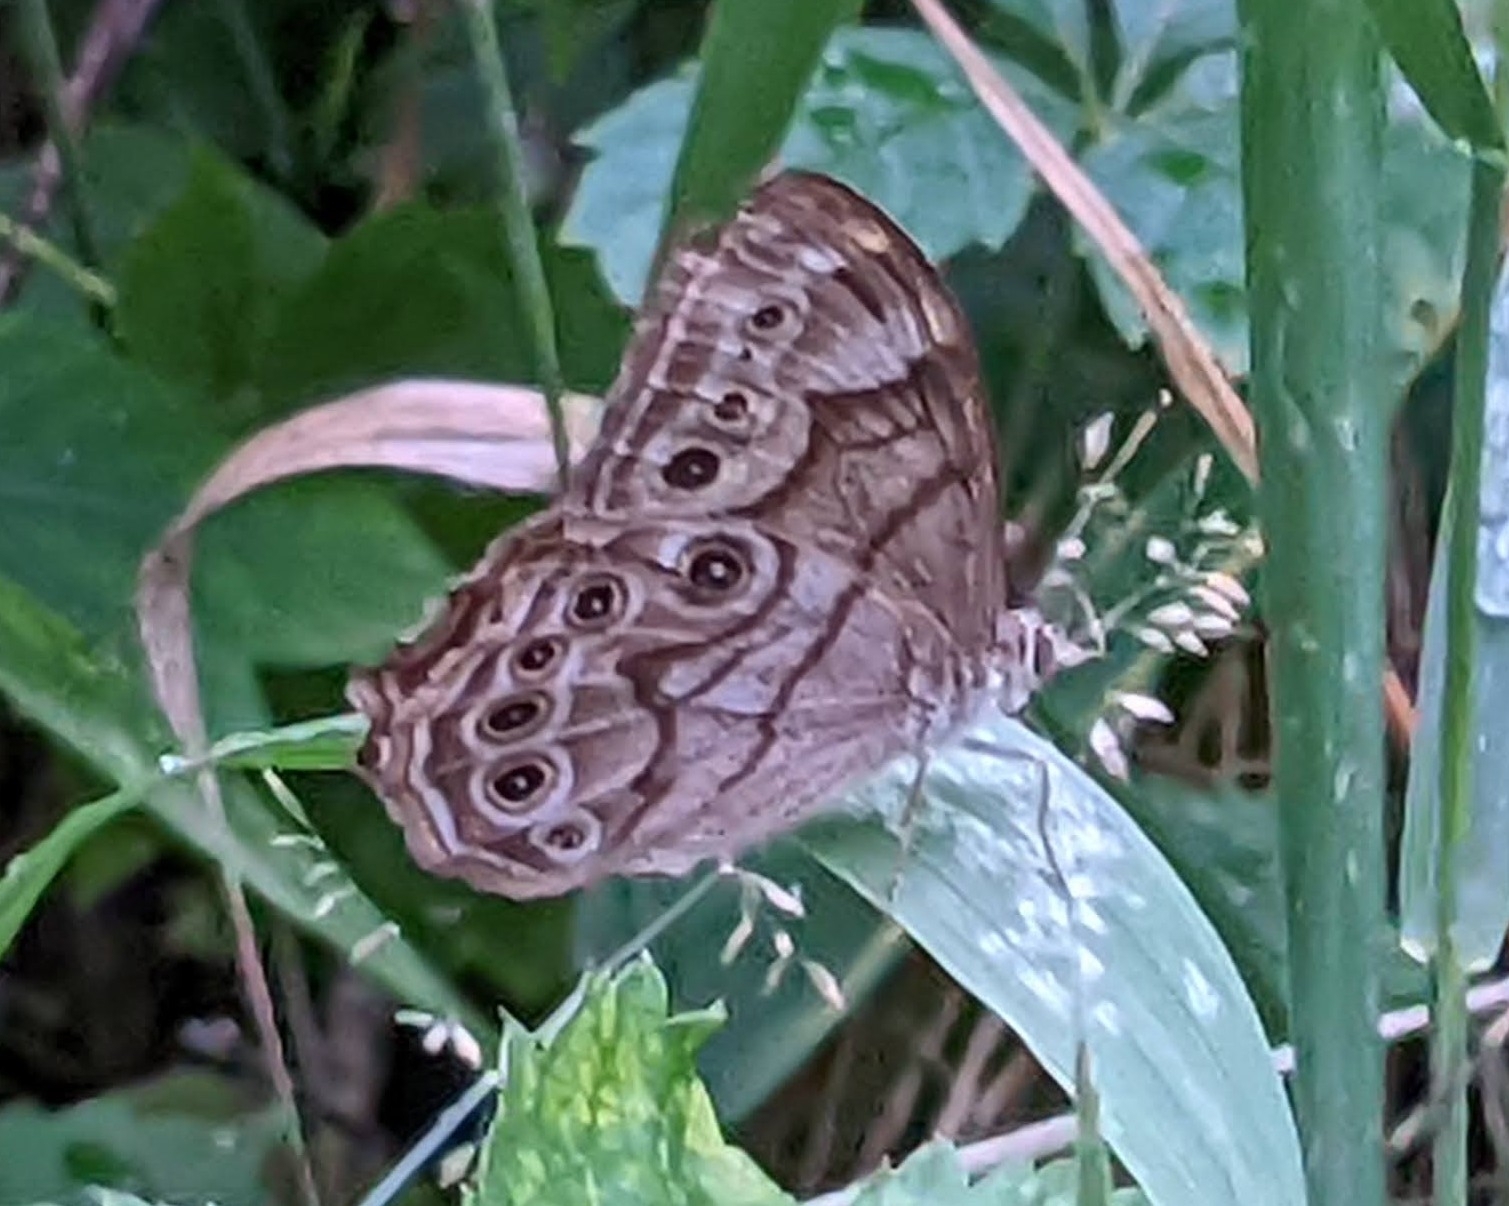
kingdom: Animalia
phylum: Arthropoda
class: Insecta
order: Lepidoptera
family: Nymphalidae
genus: Lethe
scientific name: Lethe anthedon
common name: Northern pearly-eye
